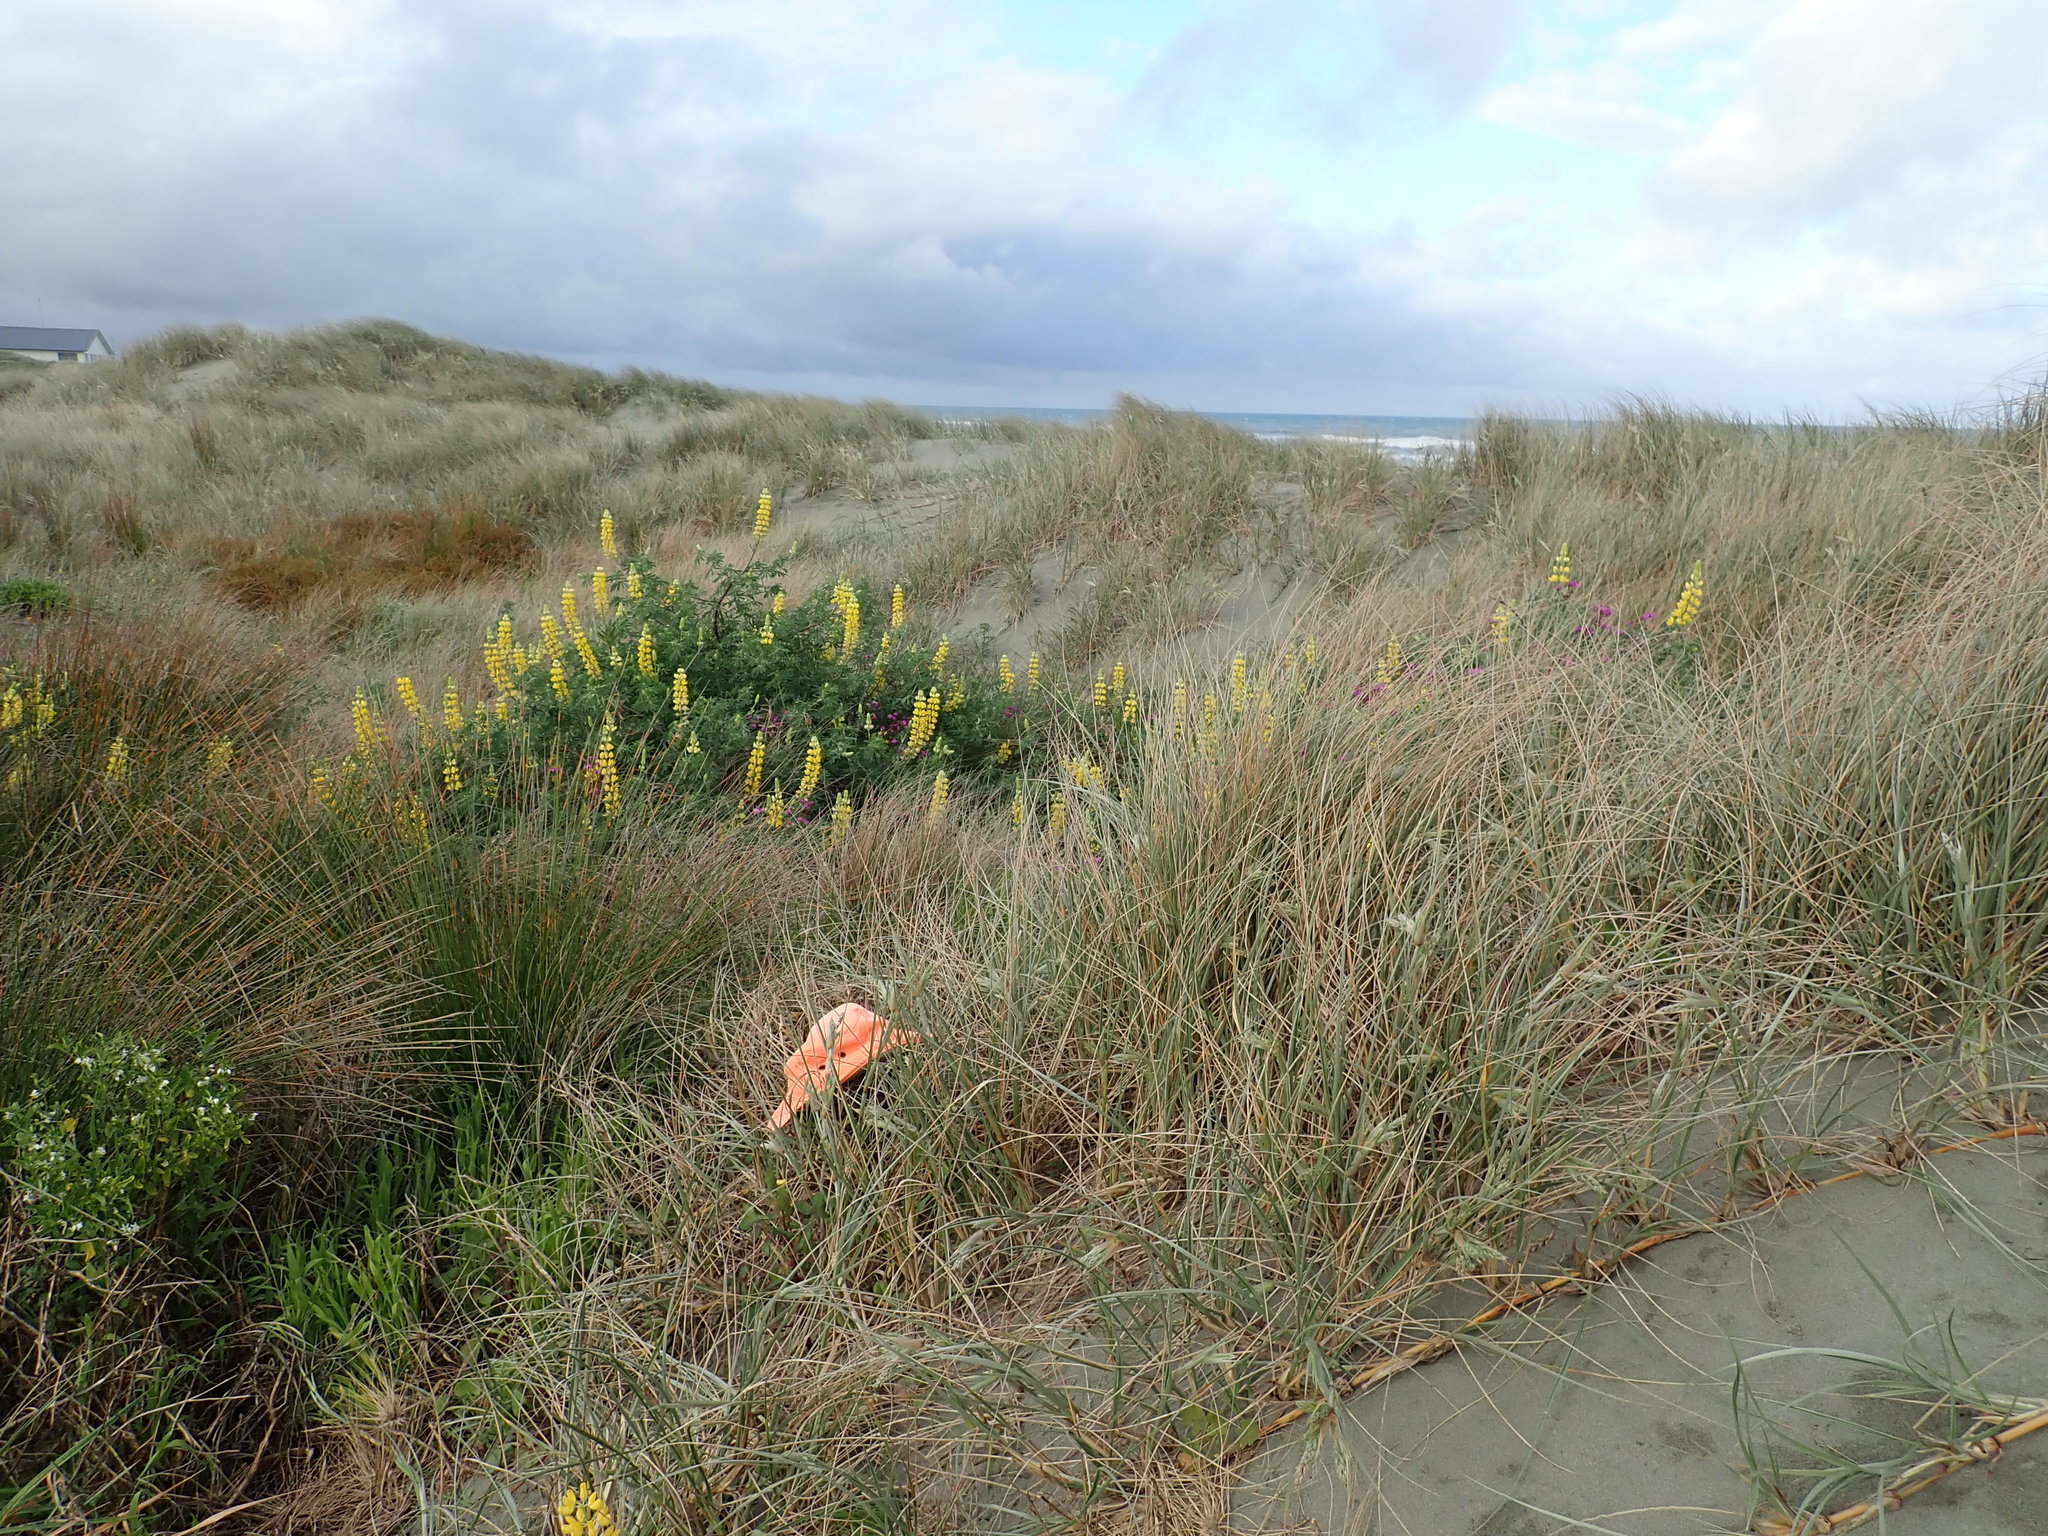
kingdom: Plantae
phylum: Tracheophyta
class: Magnoliopsida
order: Asterales
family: Asteraceae
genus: Sonchus
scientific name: Sonchus oleraceus
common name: Common sowthistle
